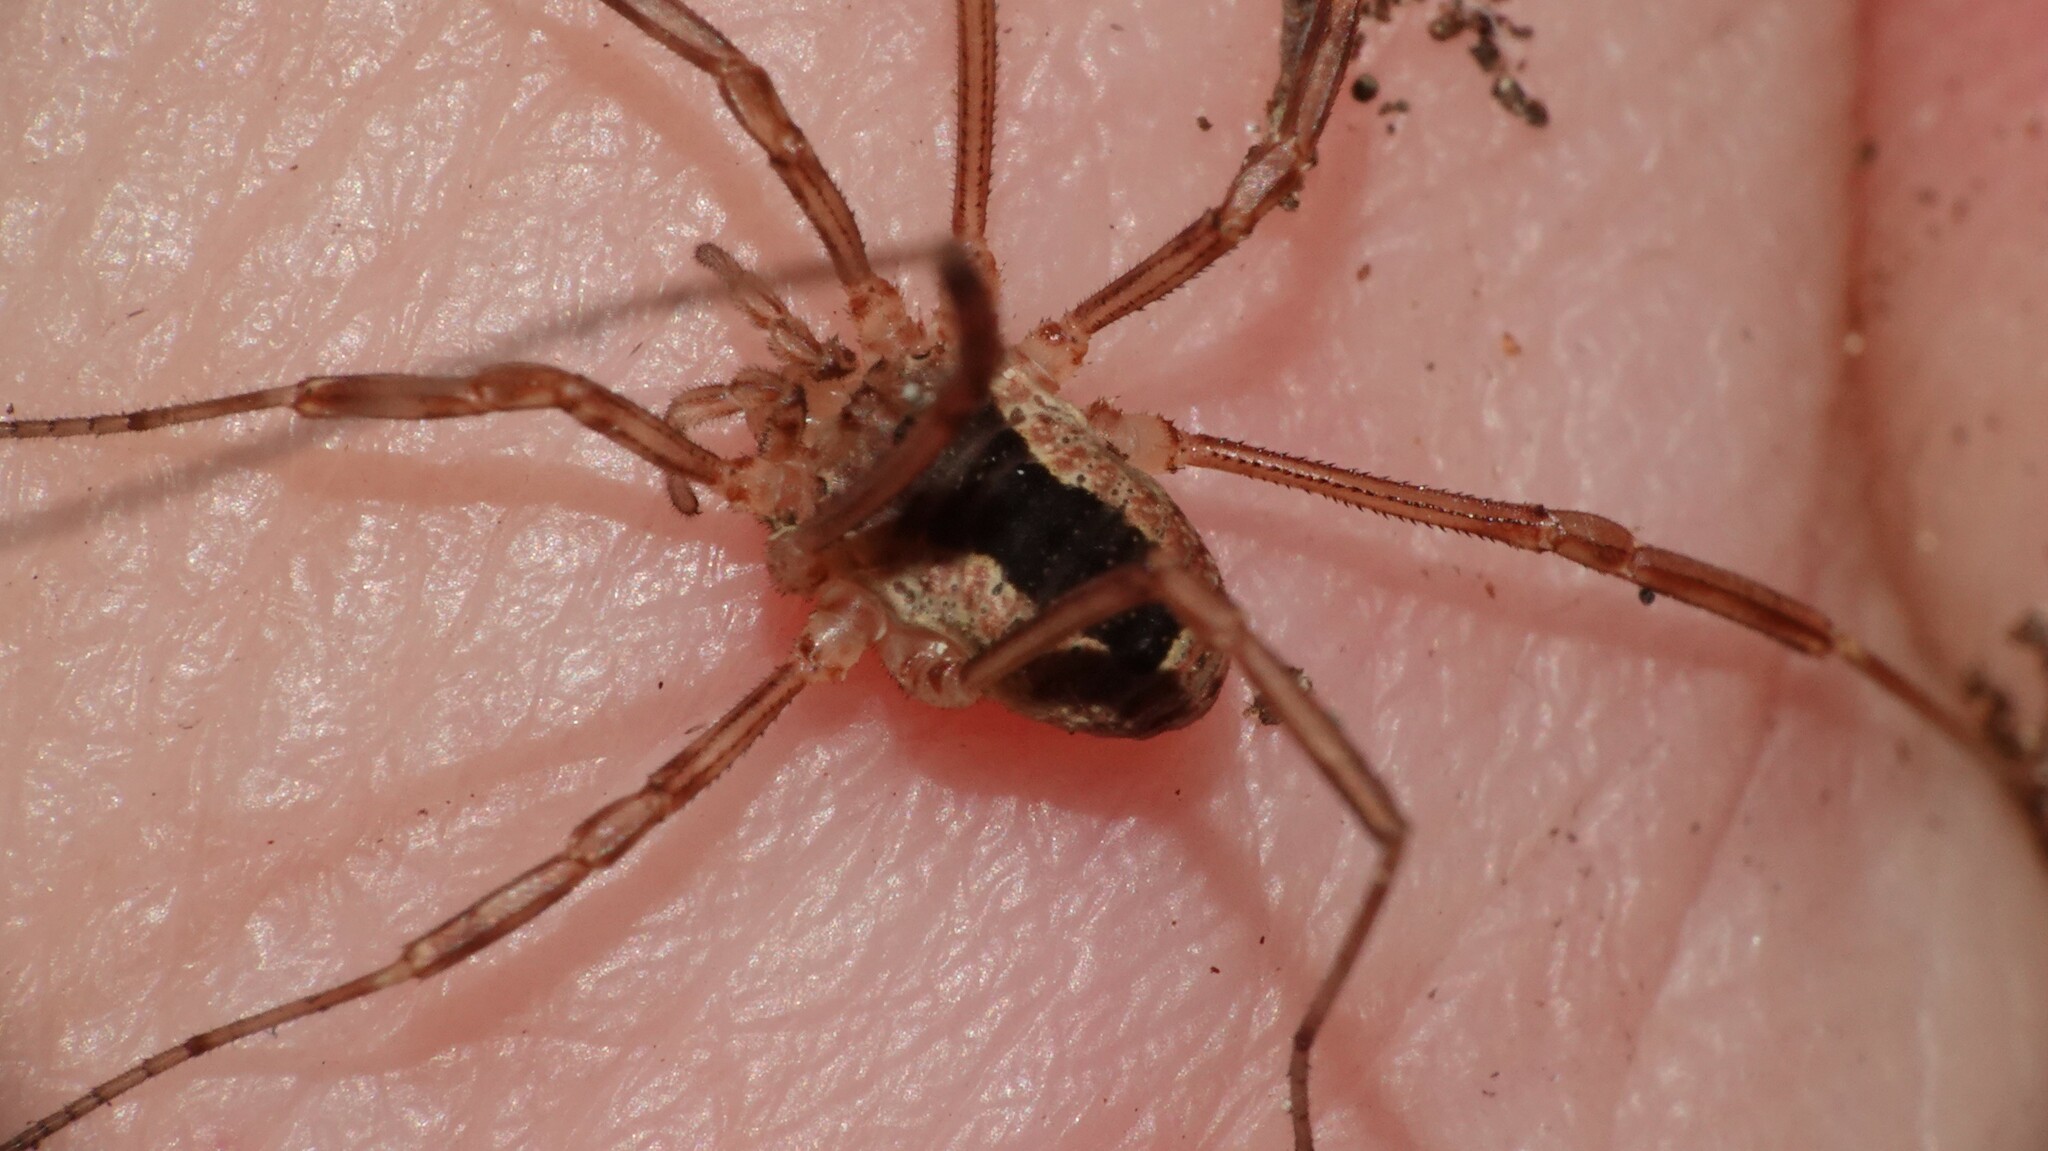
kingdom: Animalia
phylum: Arthropoda
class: Arachnida
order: Opiliones
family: Phalangiidae
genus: Lacinius
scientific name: Lacinius ephippiatus
